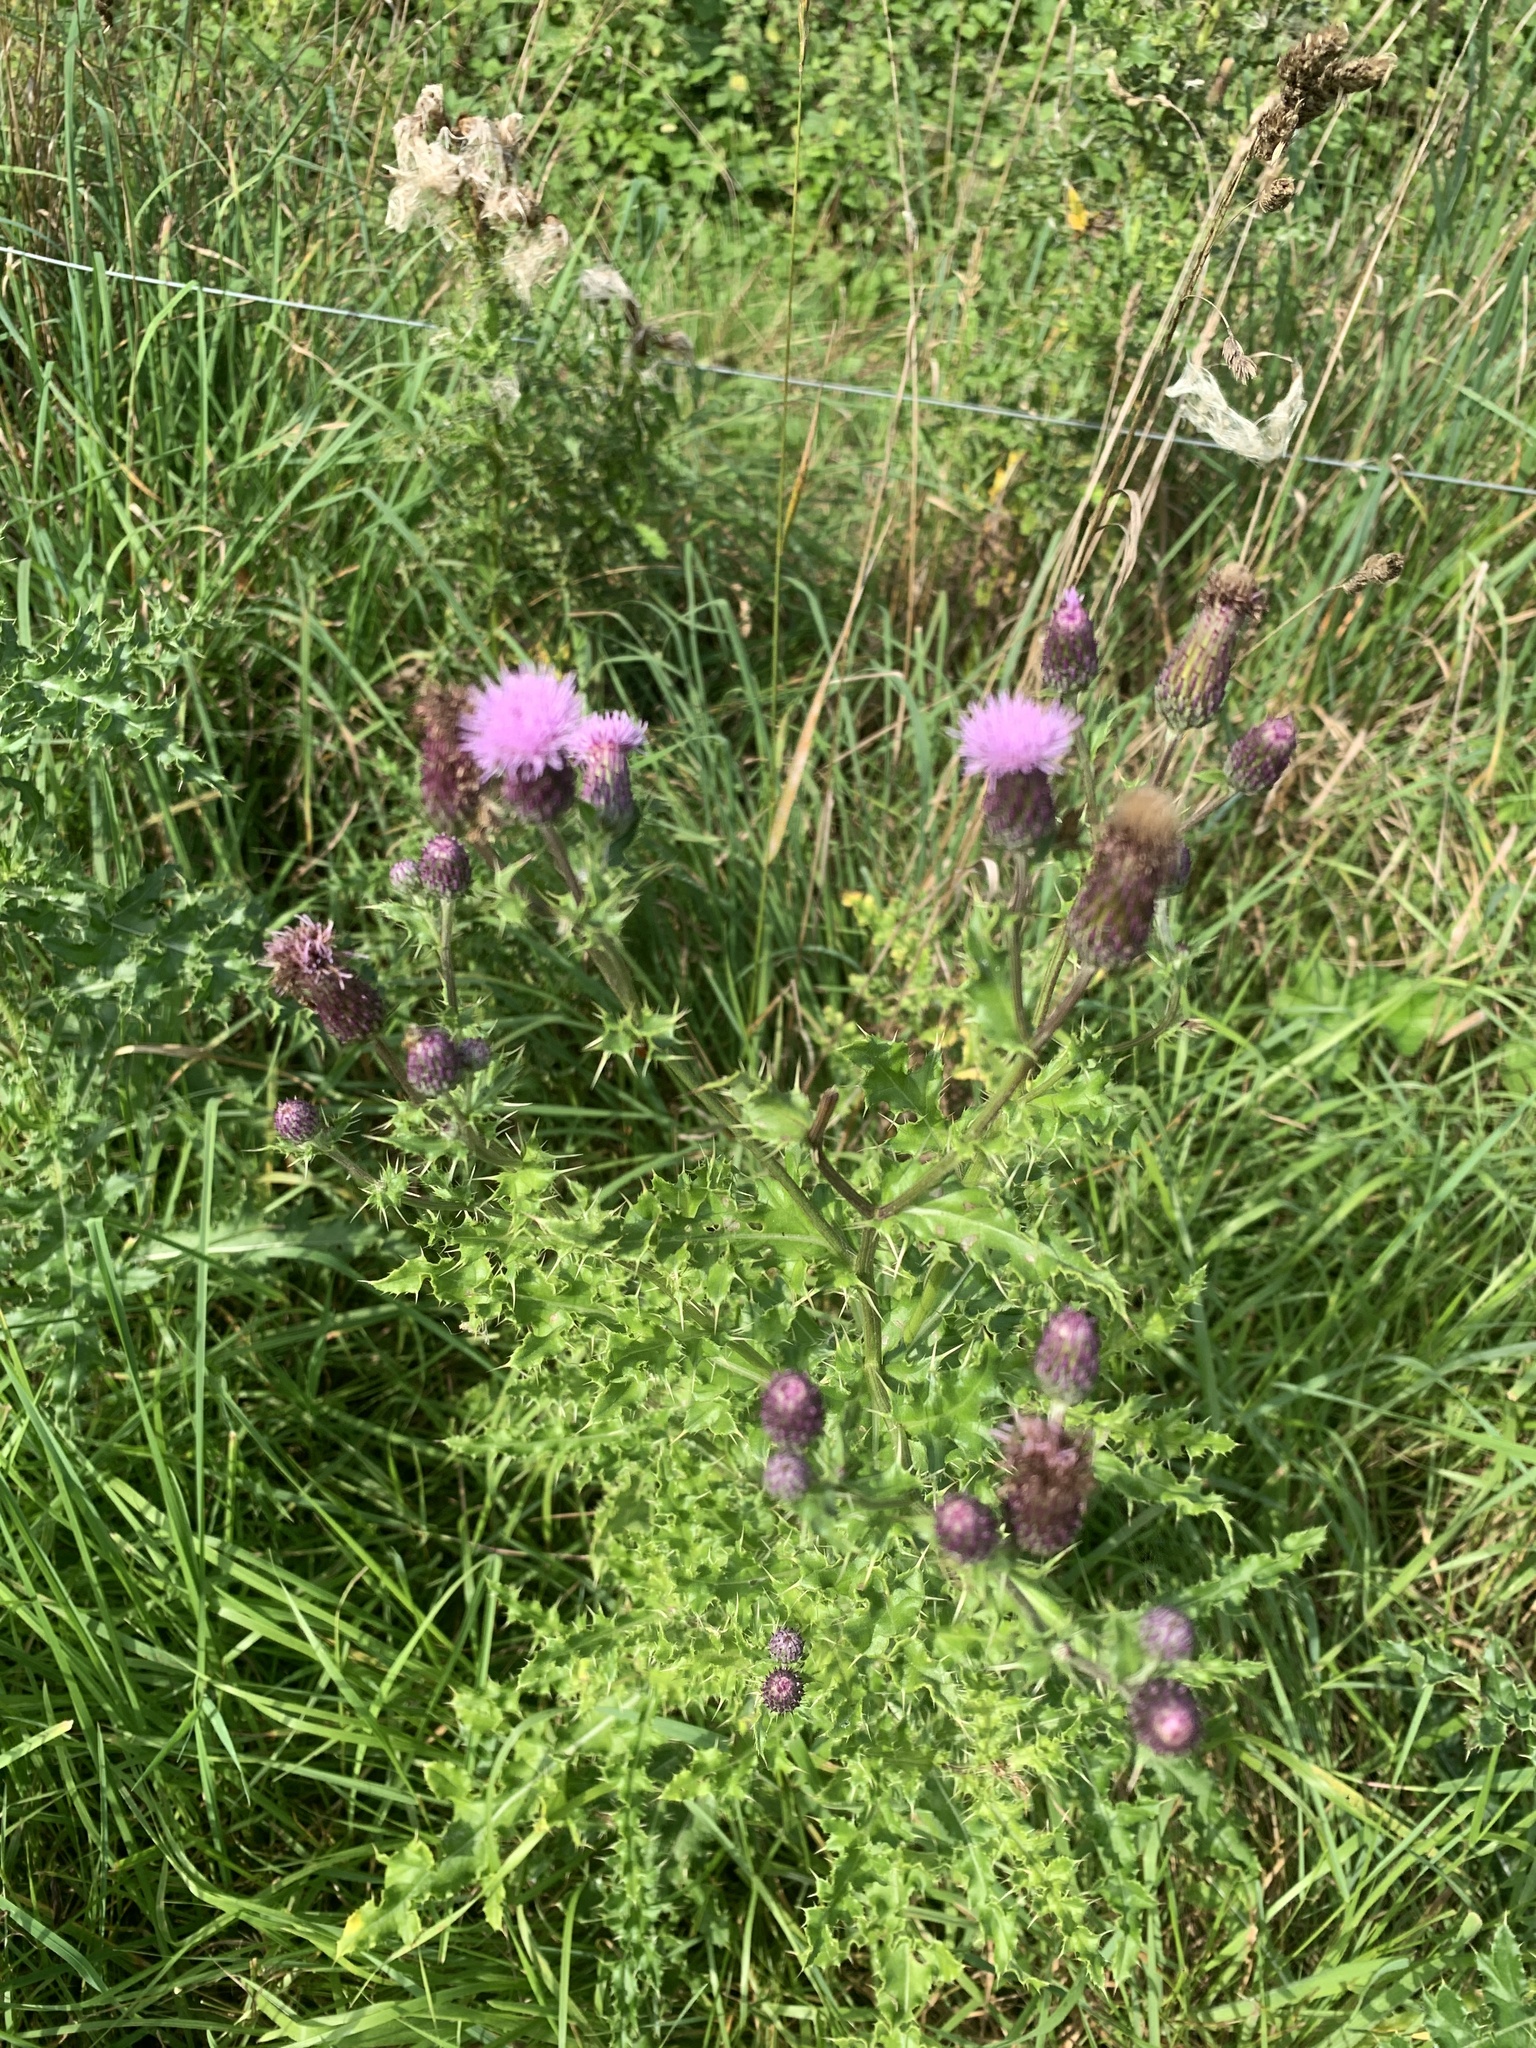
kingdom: Plantae
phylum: Tracheophyta
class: Magnoliopsida
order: Asterales
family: Asteraceae
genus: Cirsium
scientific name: Cirsium arvense
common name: Creeping thistle
